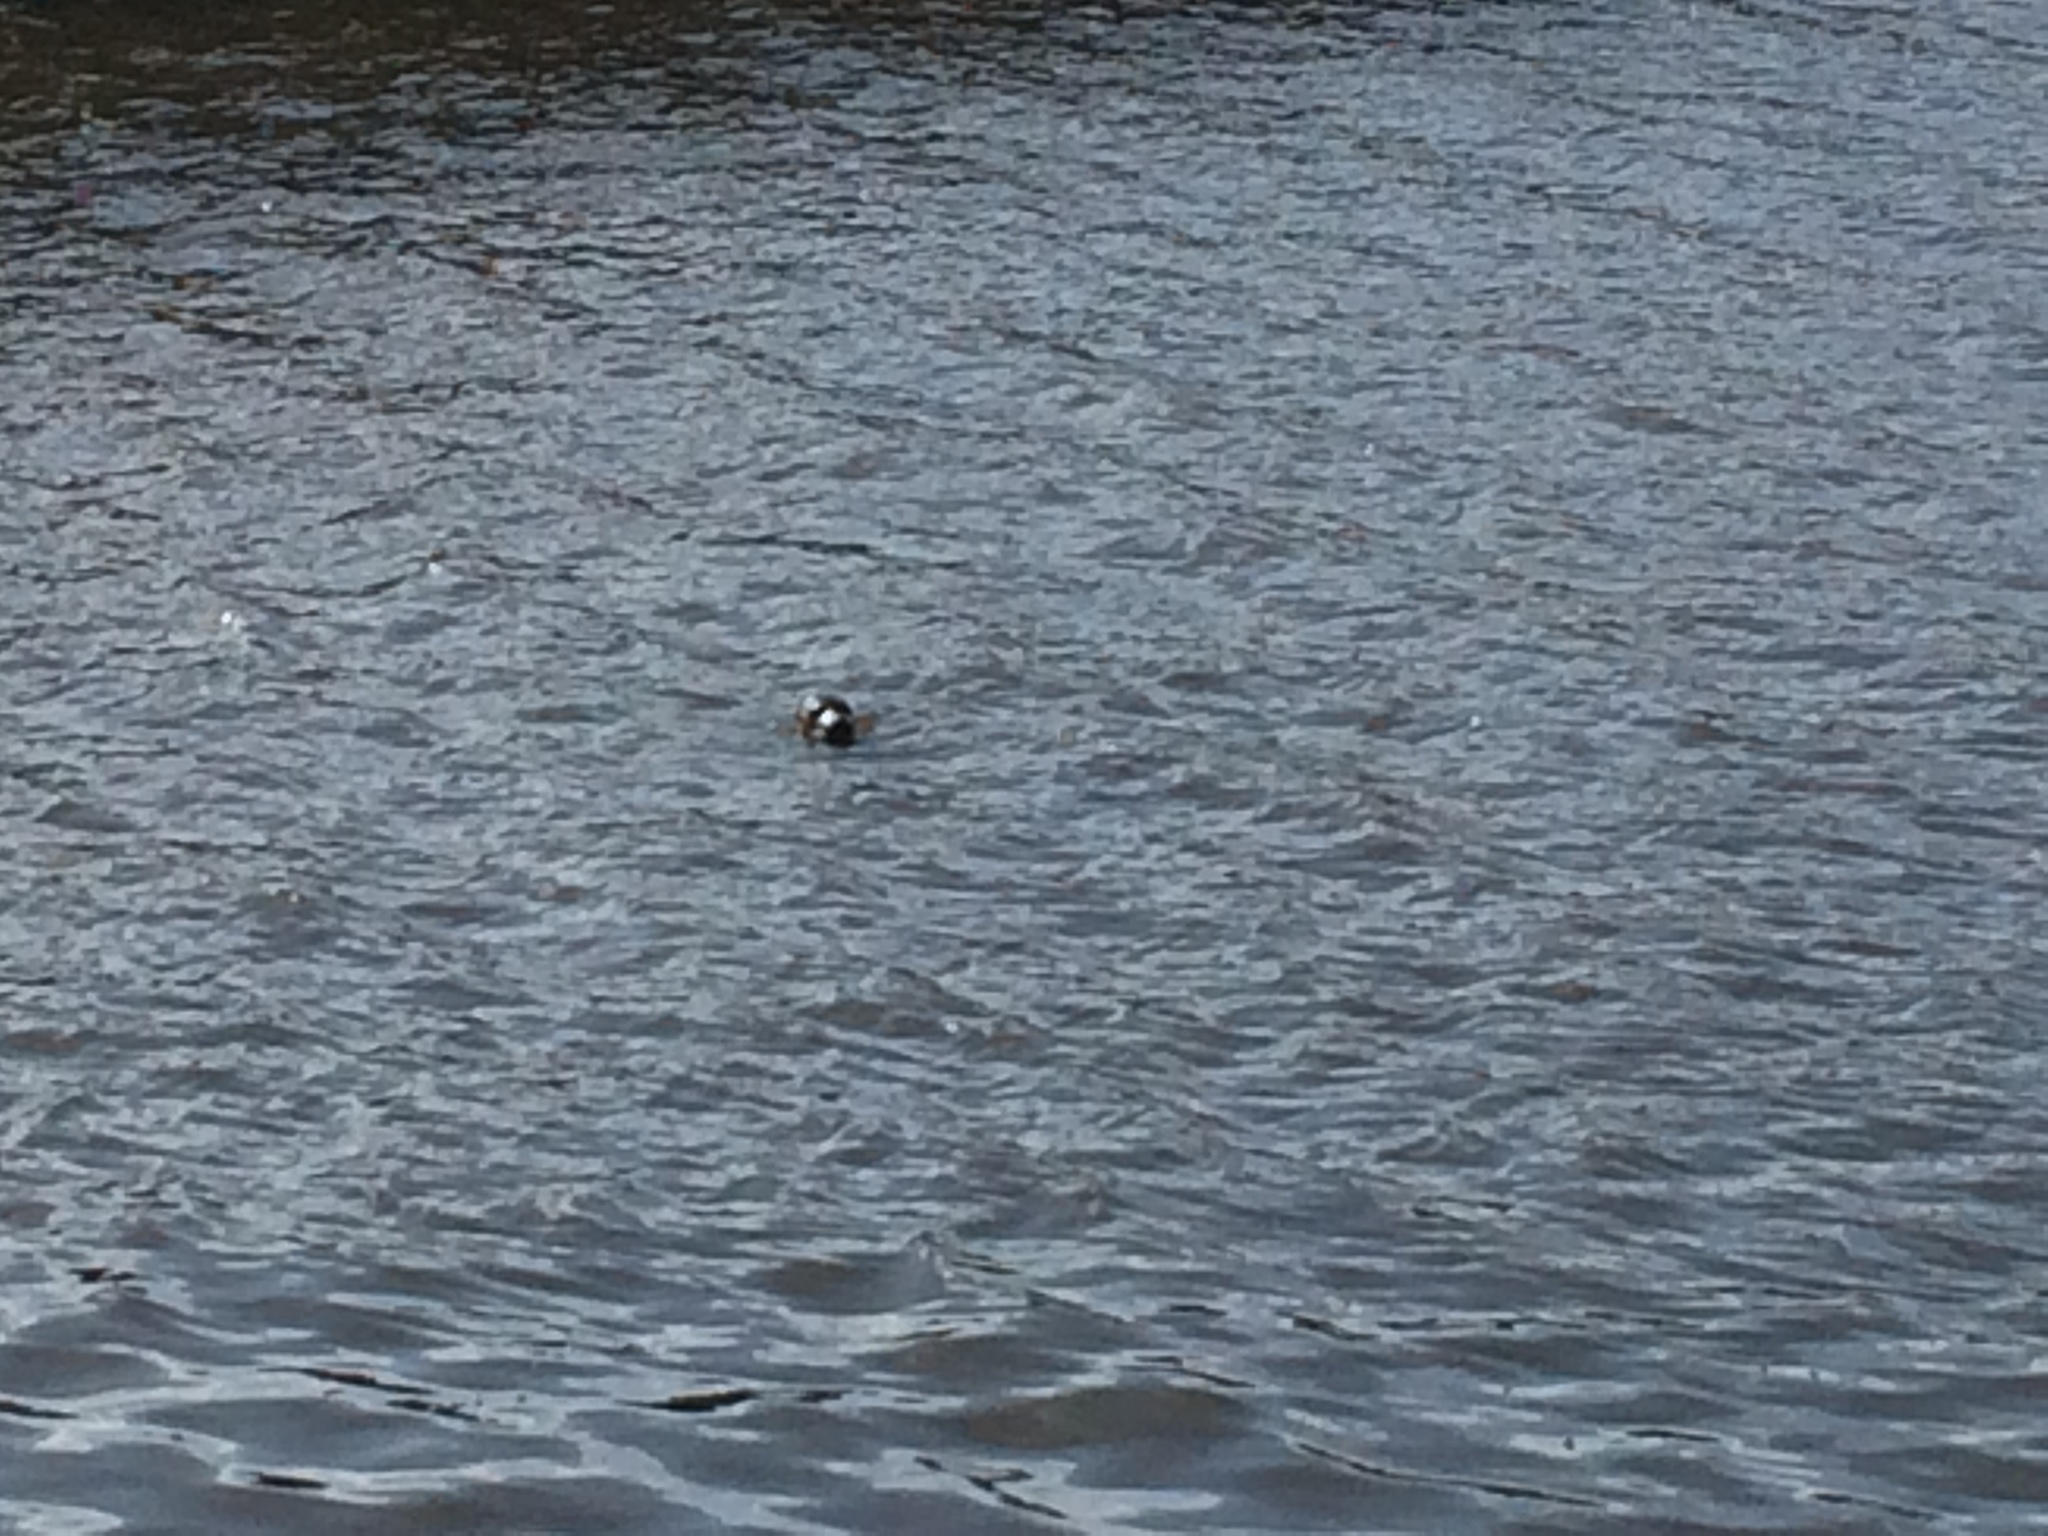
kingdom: Animalia
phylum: Chordata
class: Mammalia
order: Carnivora
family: Phocidae
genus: Halichoerus
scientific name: Halichoerus grypus
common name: Grey seal
